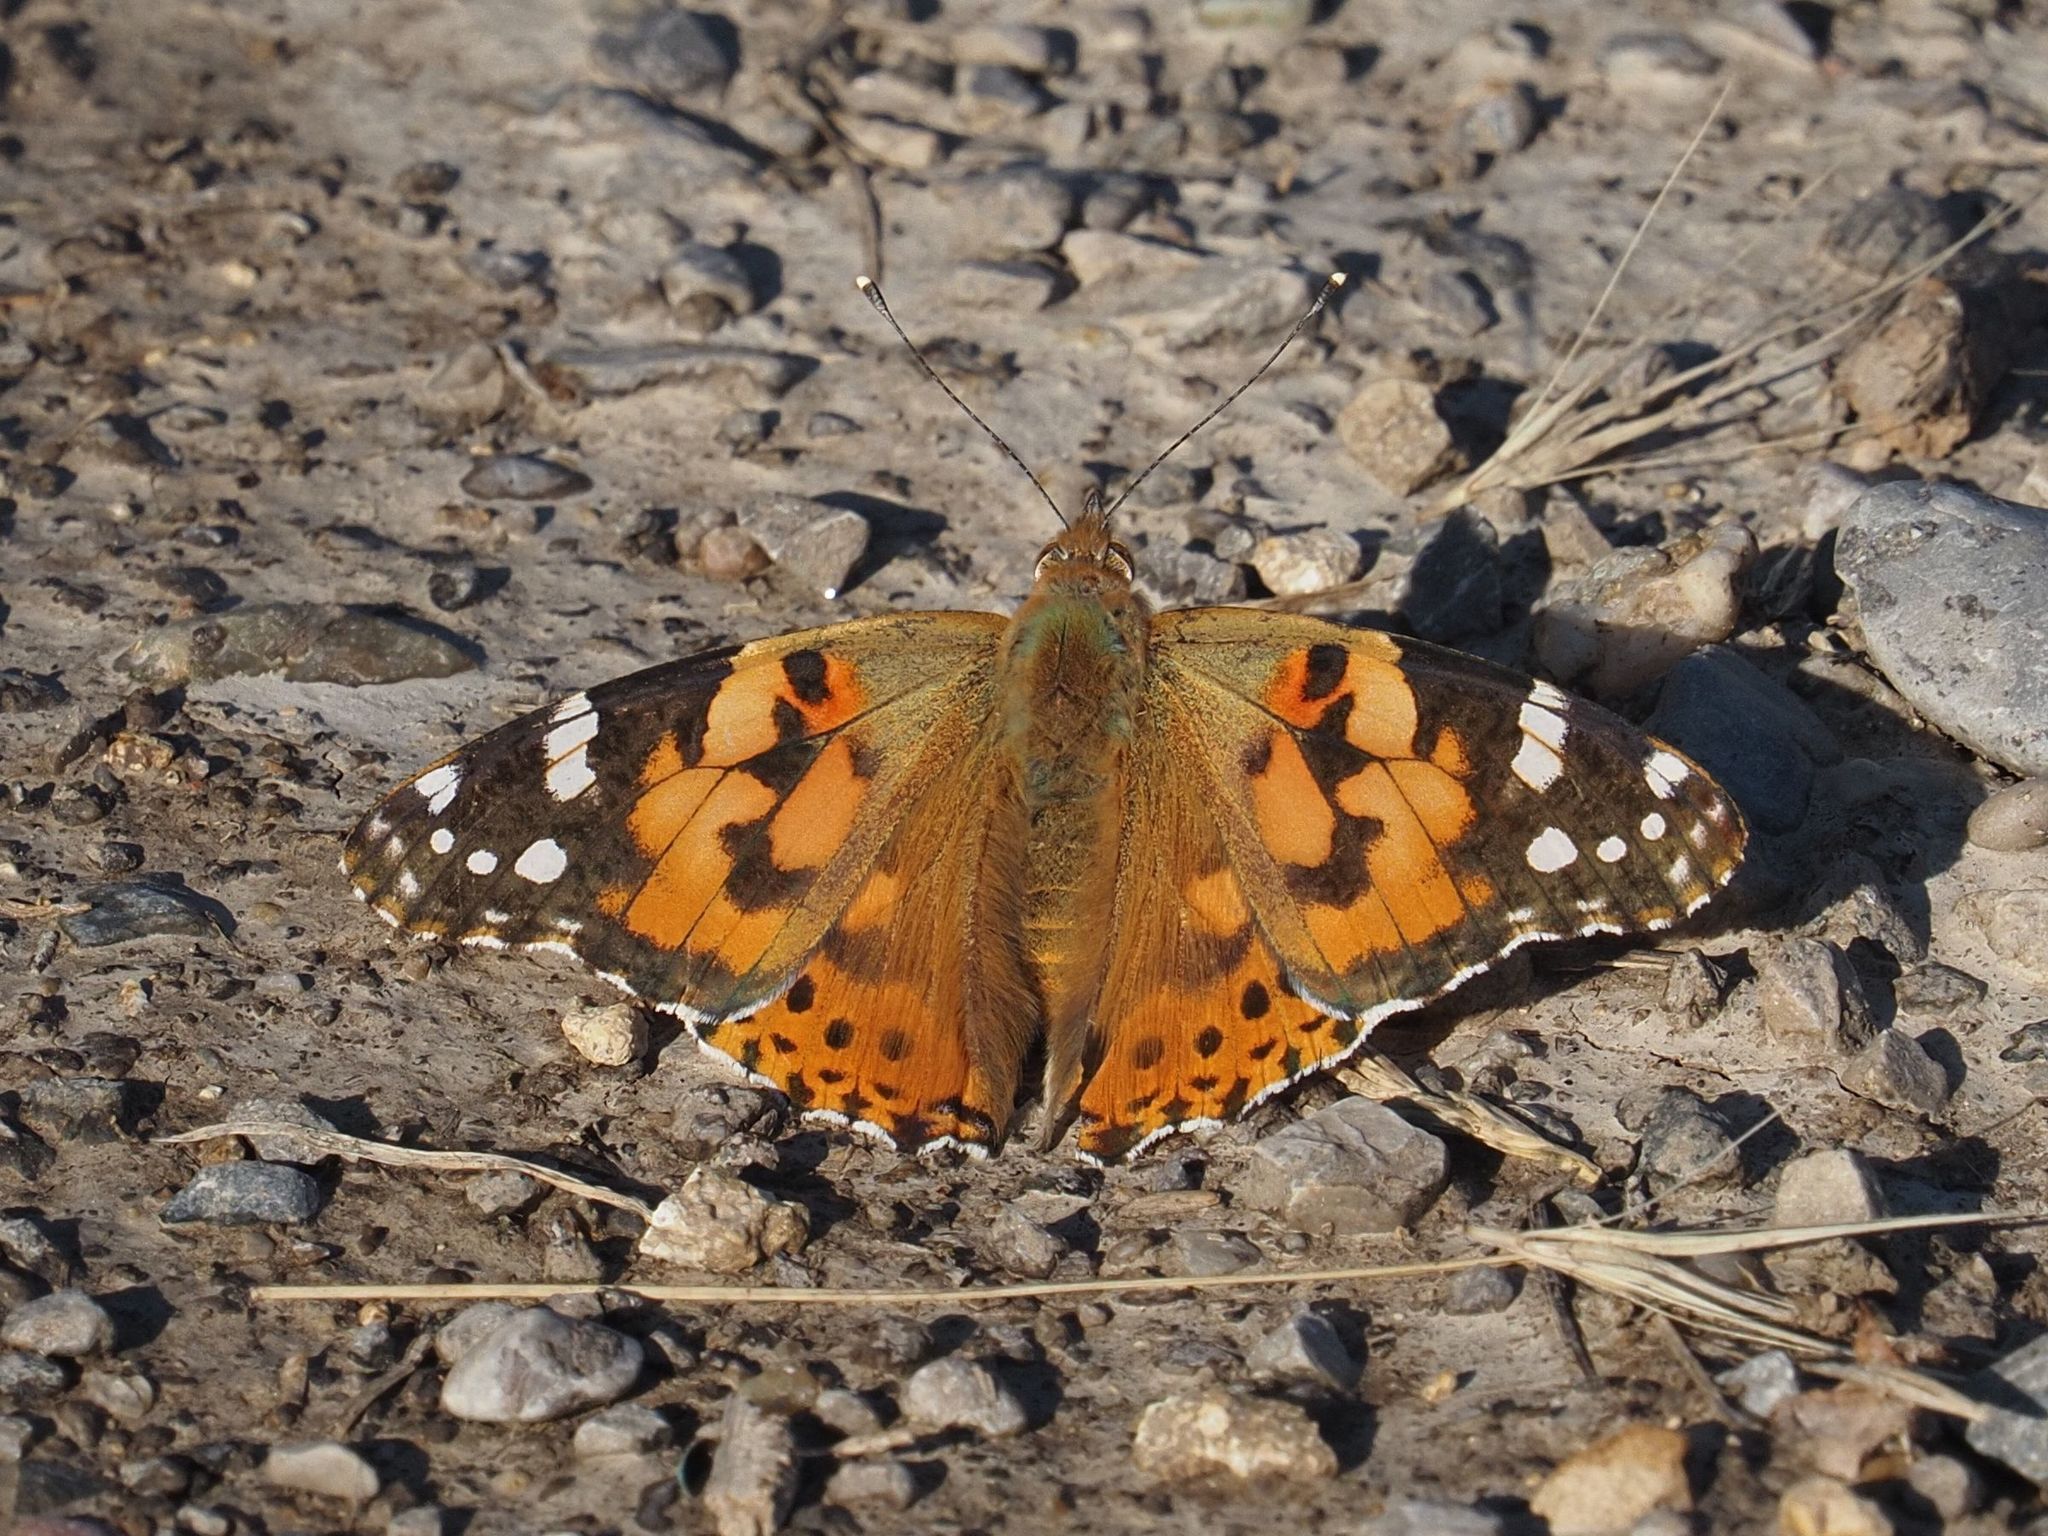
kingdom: Animalia
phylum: Arthropoda
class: Insecta
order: Lepidoptera
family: Nymphalidae
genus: Vanessa
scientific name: Vanessa cardui
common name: Painted lady
